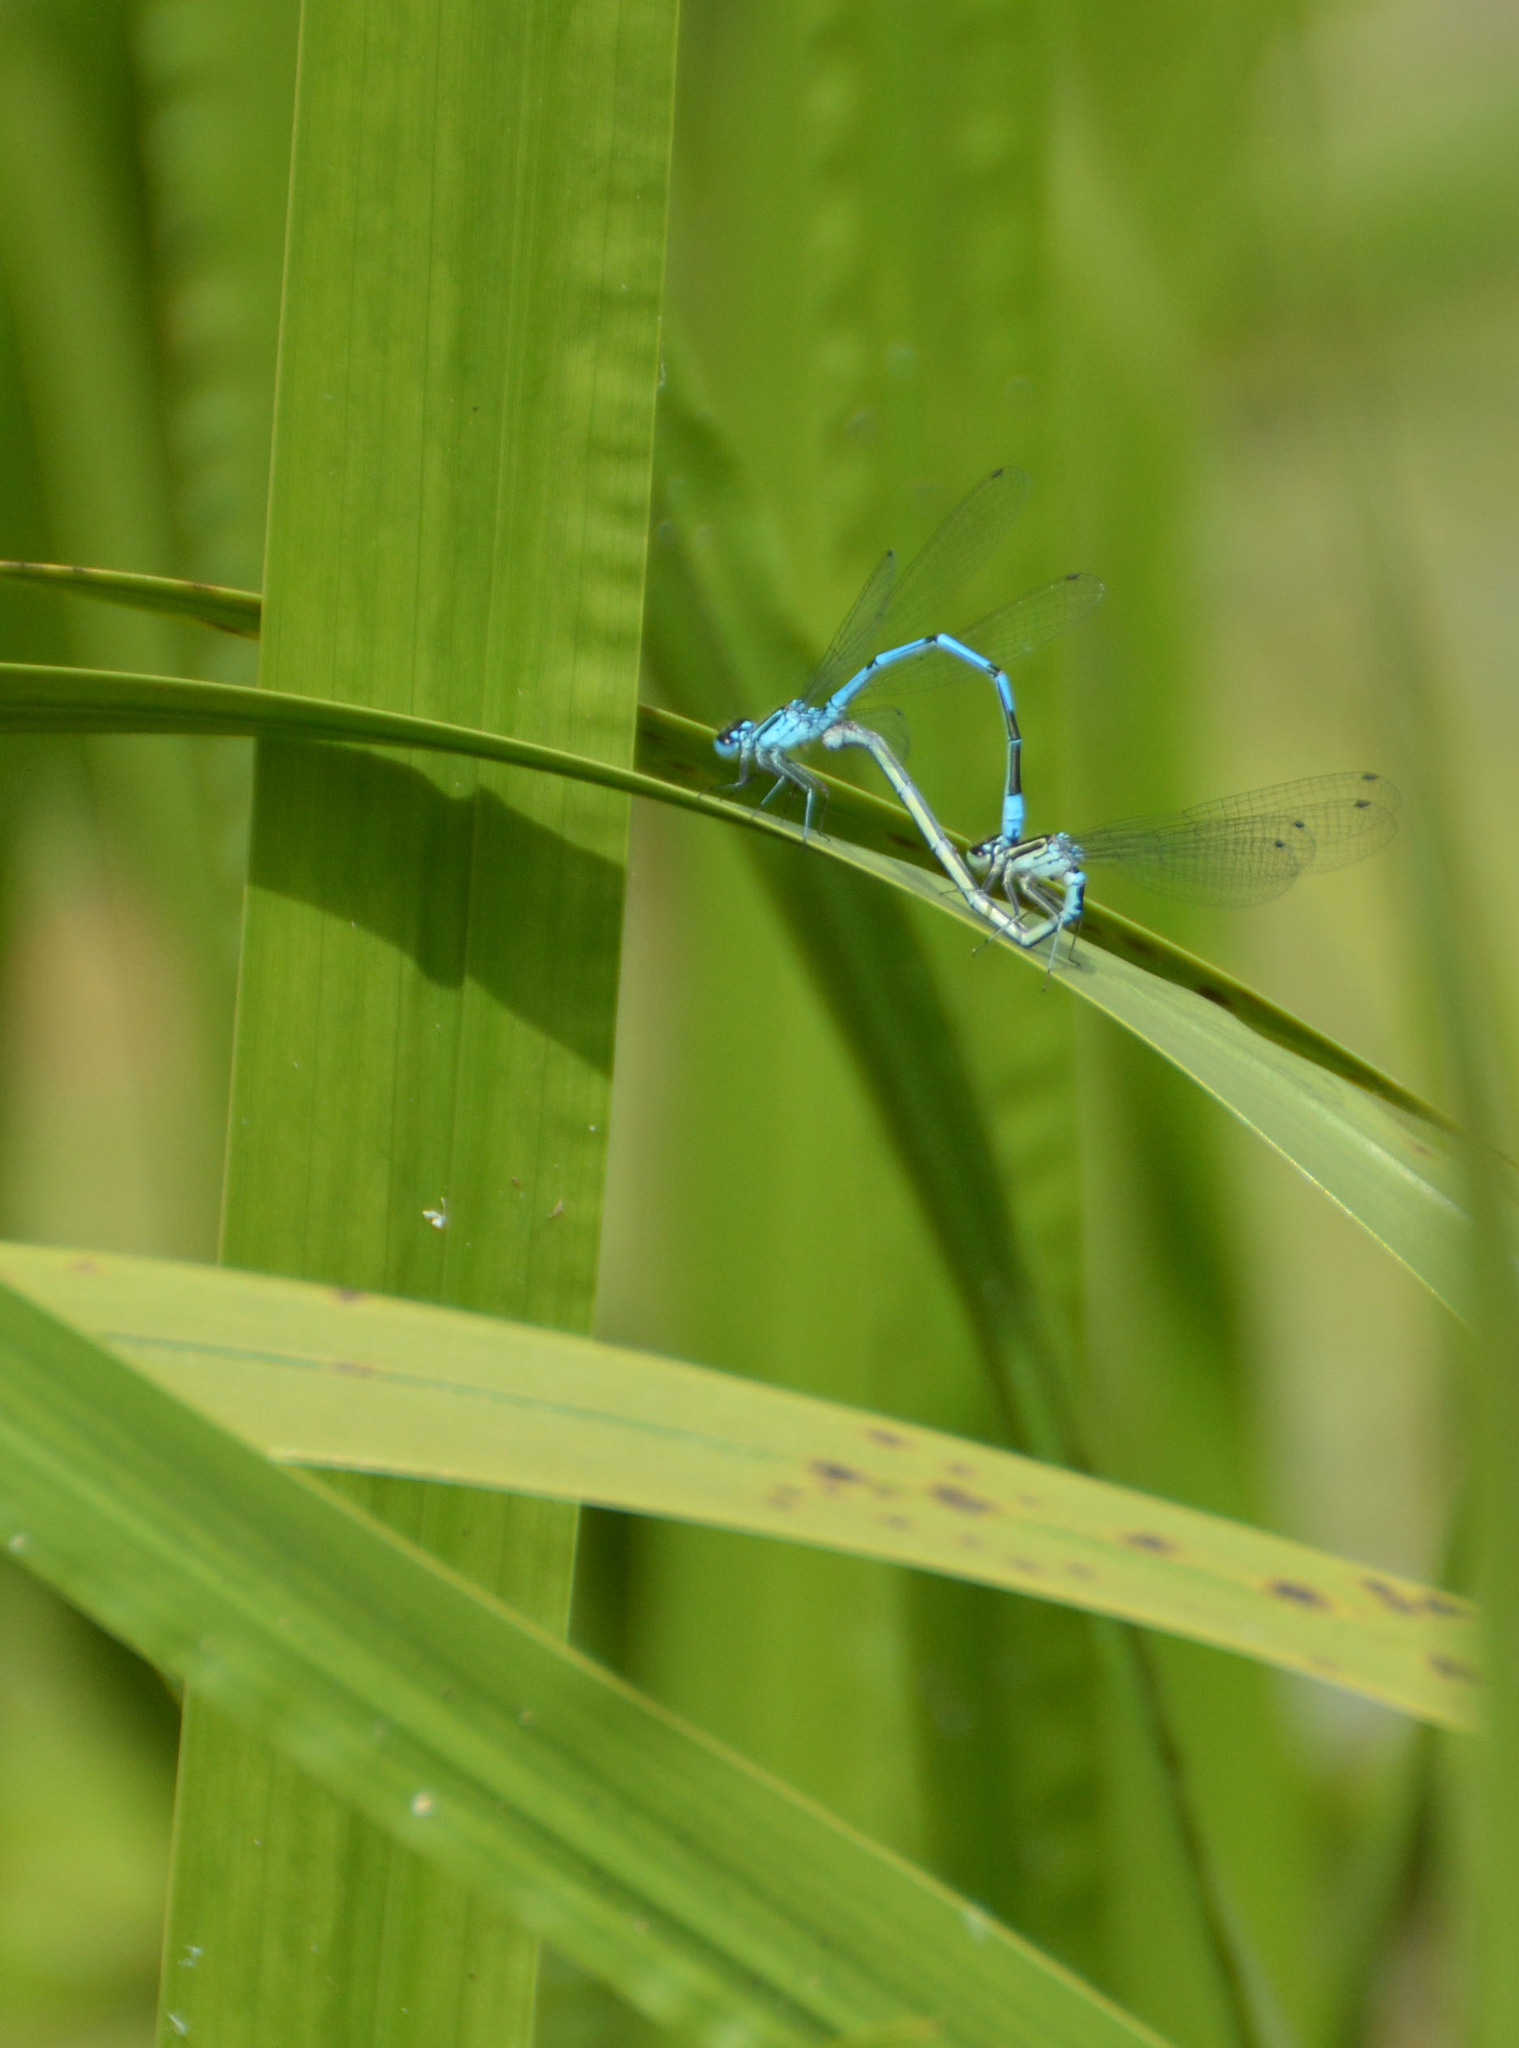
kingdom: Animalia
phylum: Arthropoda
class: Insecta
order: Odonata
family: Coenagrionidae
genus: Coenagrion
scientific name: Coenagrion puella
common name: Azure damselfly
